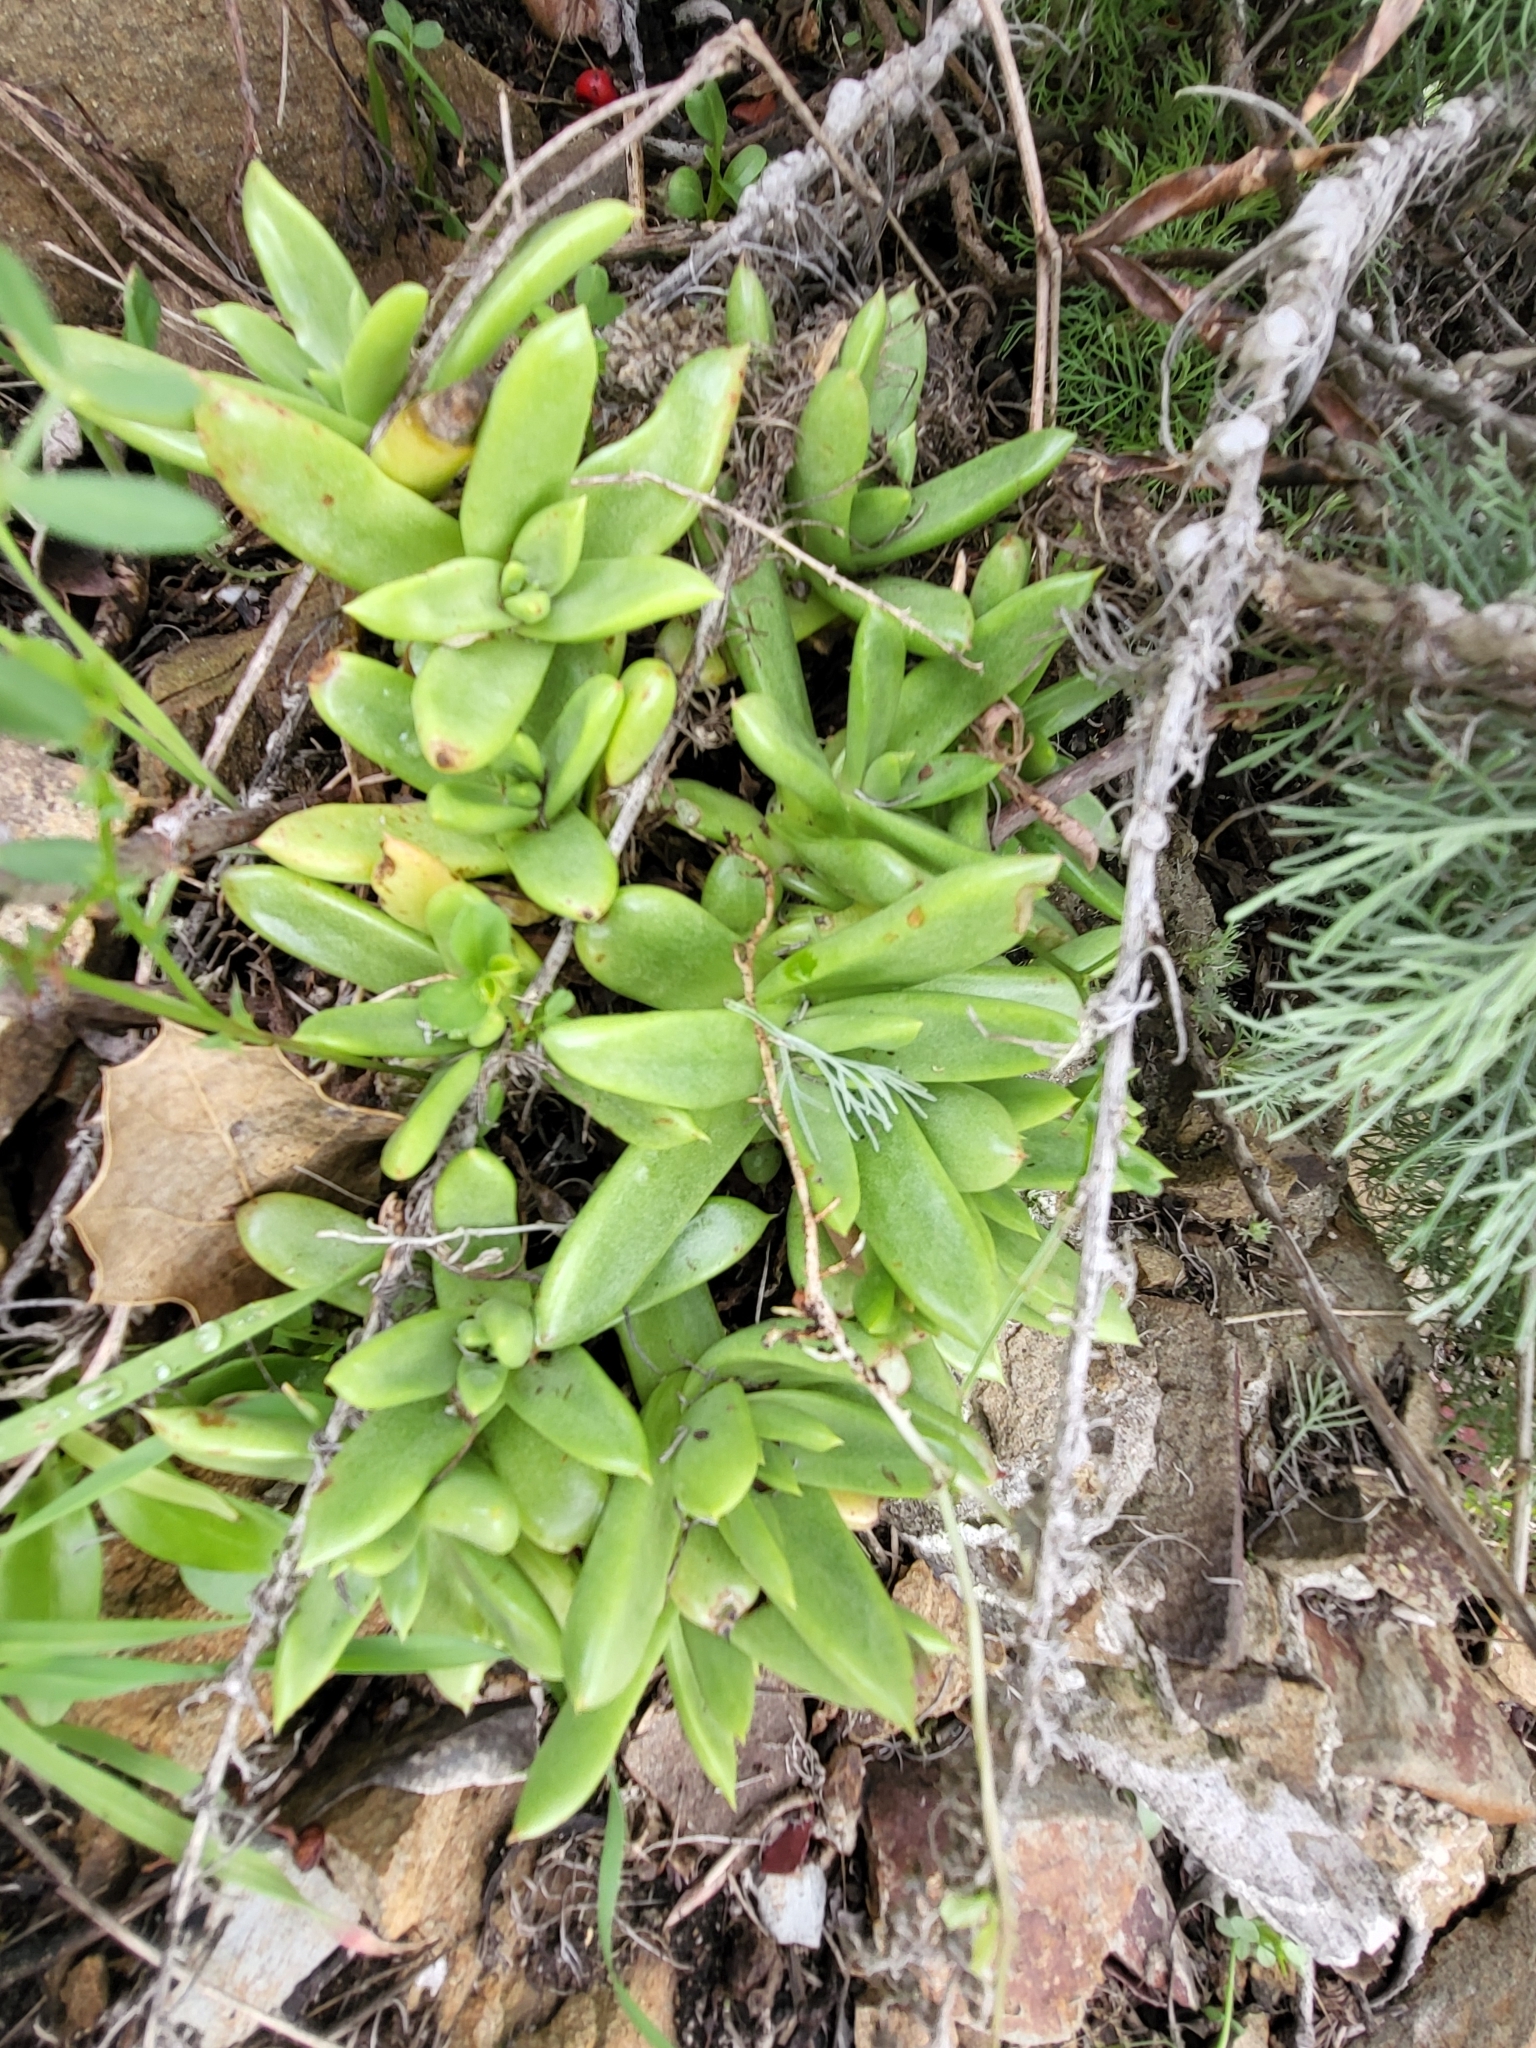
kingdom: Plantae
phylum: Tracheophyta
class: Magnoliopsida
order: Saxifragales
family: Crassulaceae
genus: Dudleya
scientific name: Dudleya farinosa
